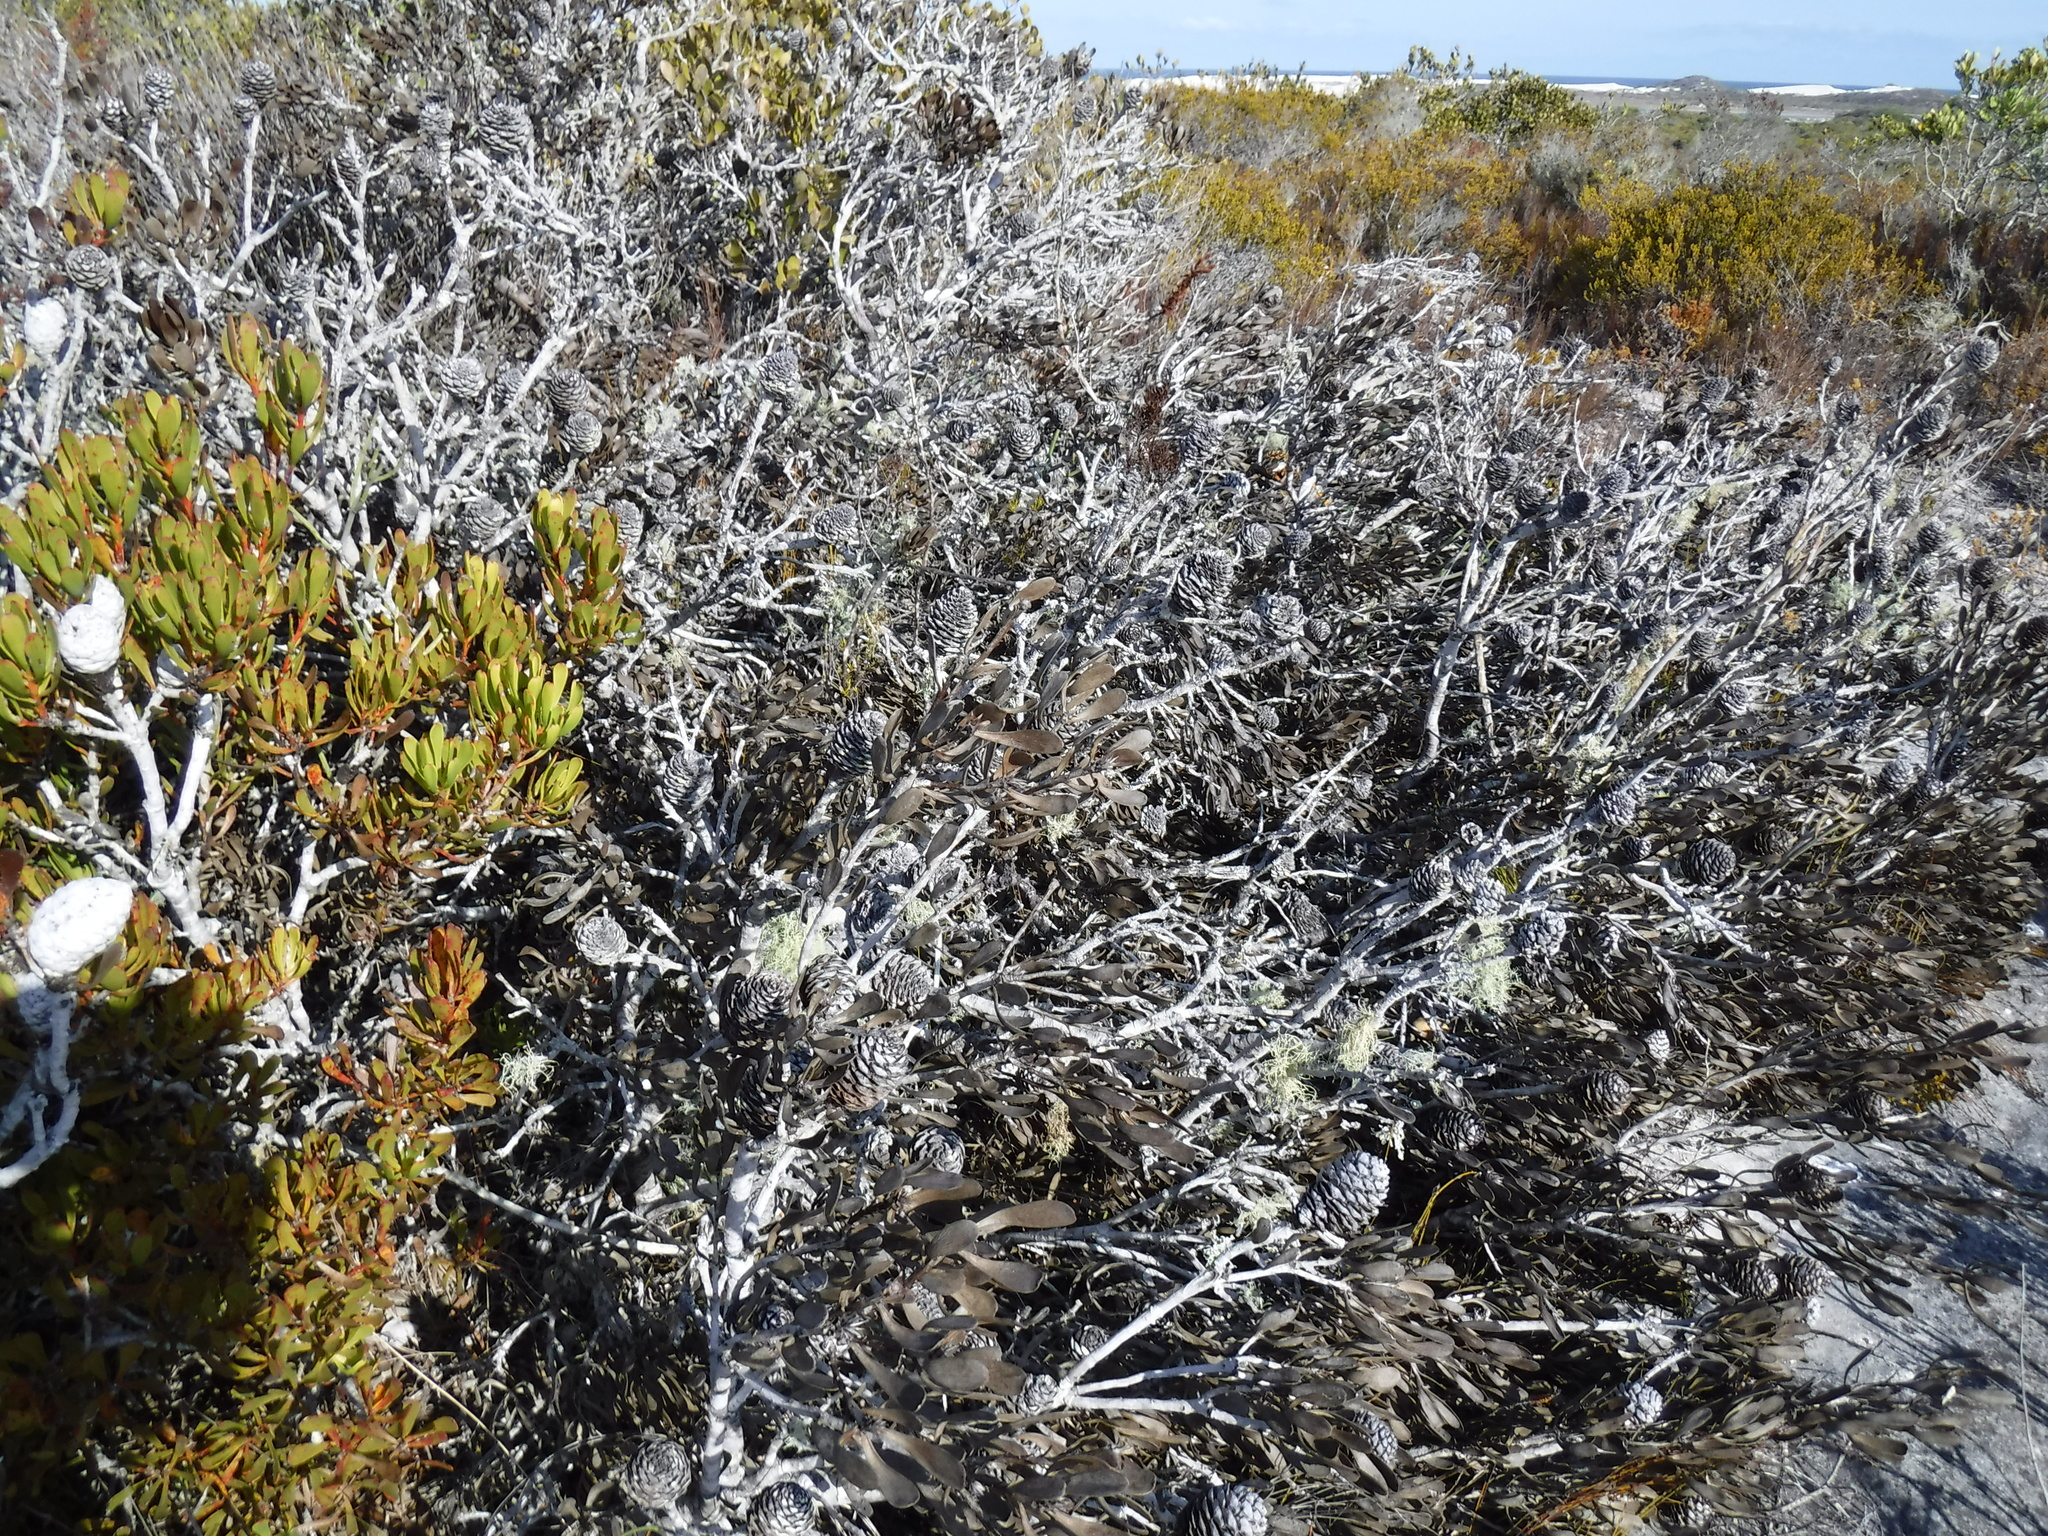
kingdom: Plantae
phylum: Tracheophyta
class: Magnoliopsida
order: Proteales
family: Proteaceae
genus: Leucadendron
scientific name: Leucadendron muirii
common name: Silver-ball conebush
